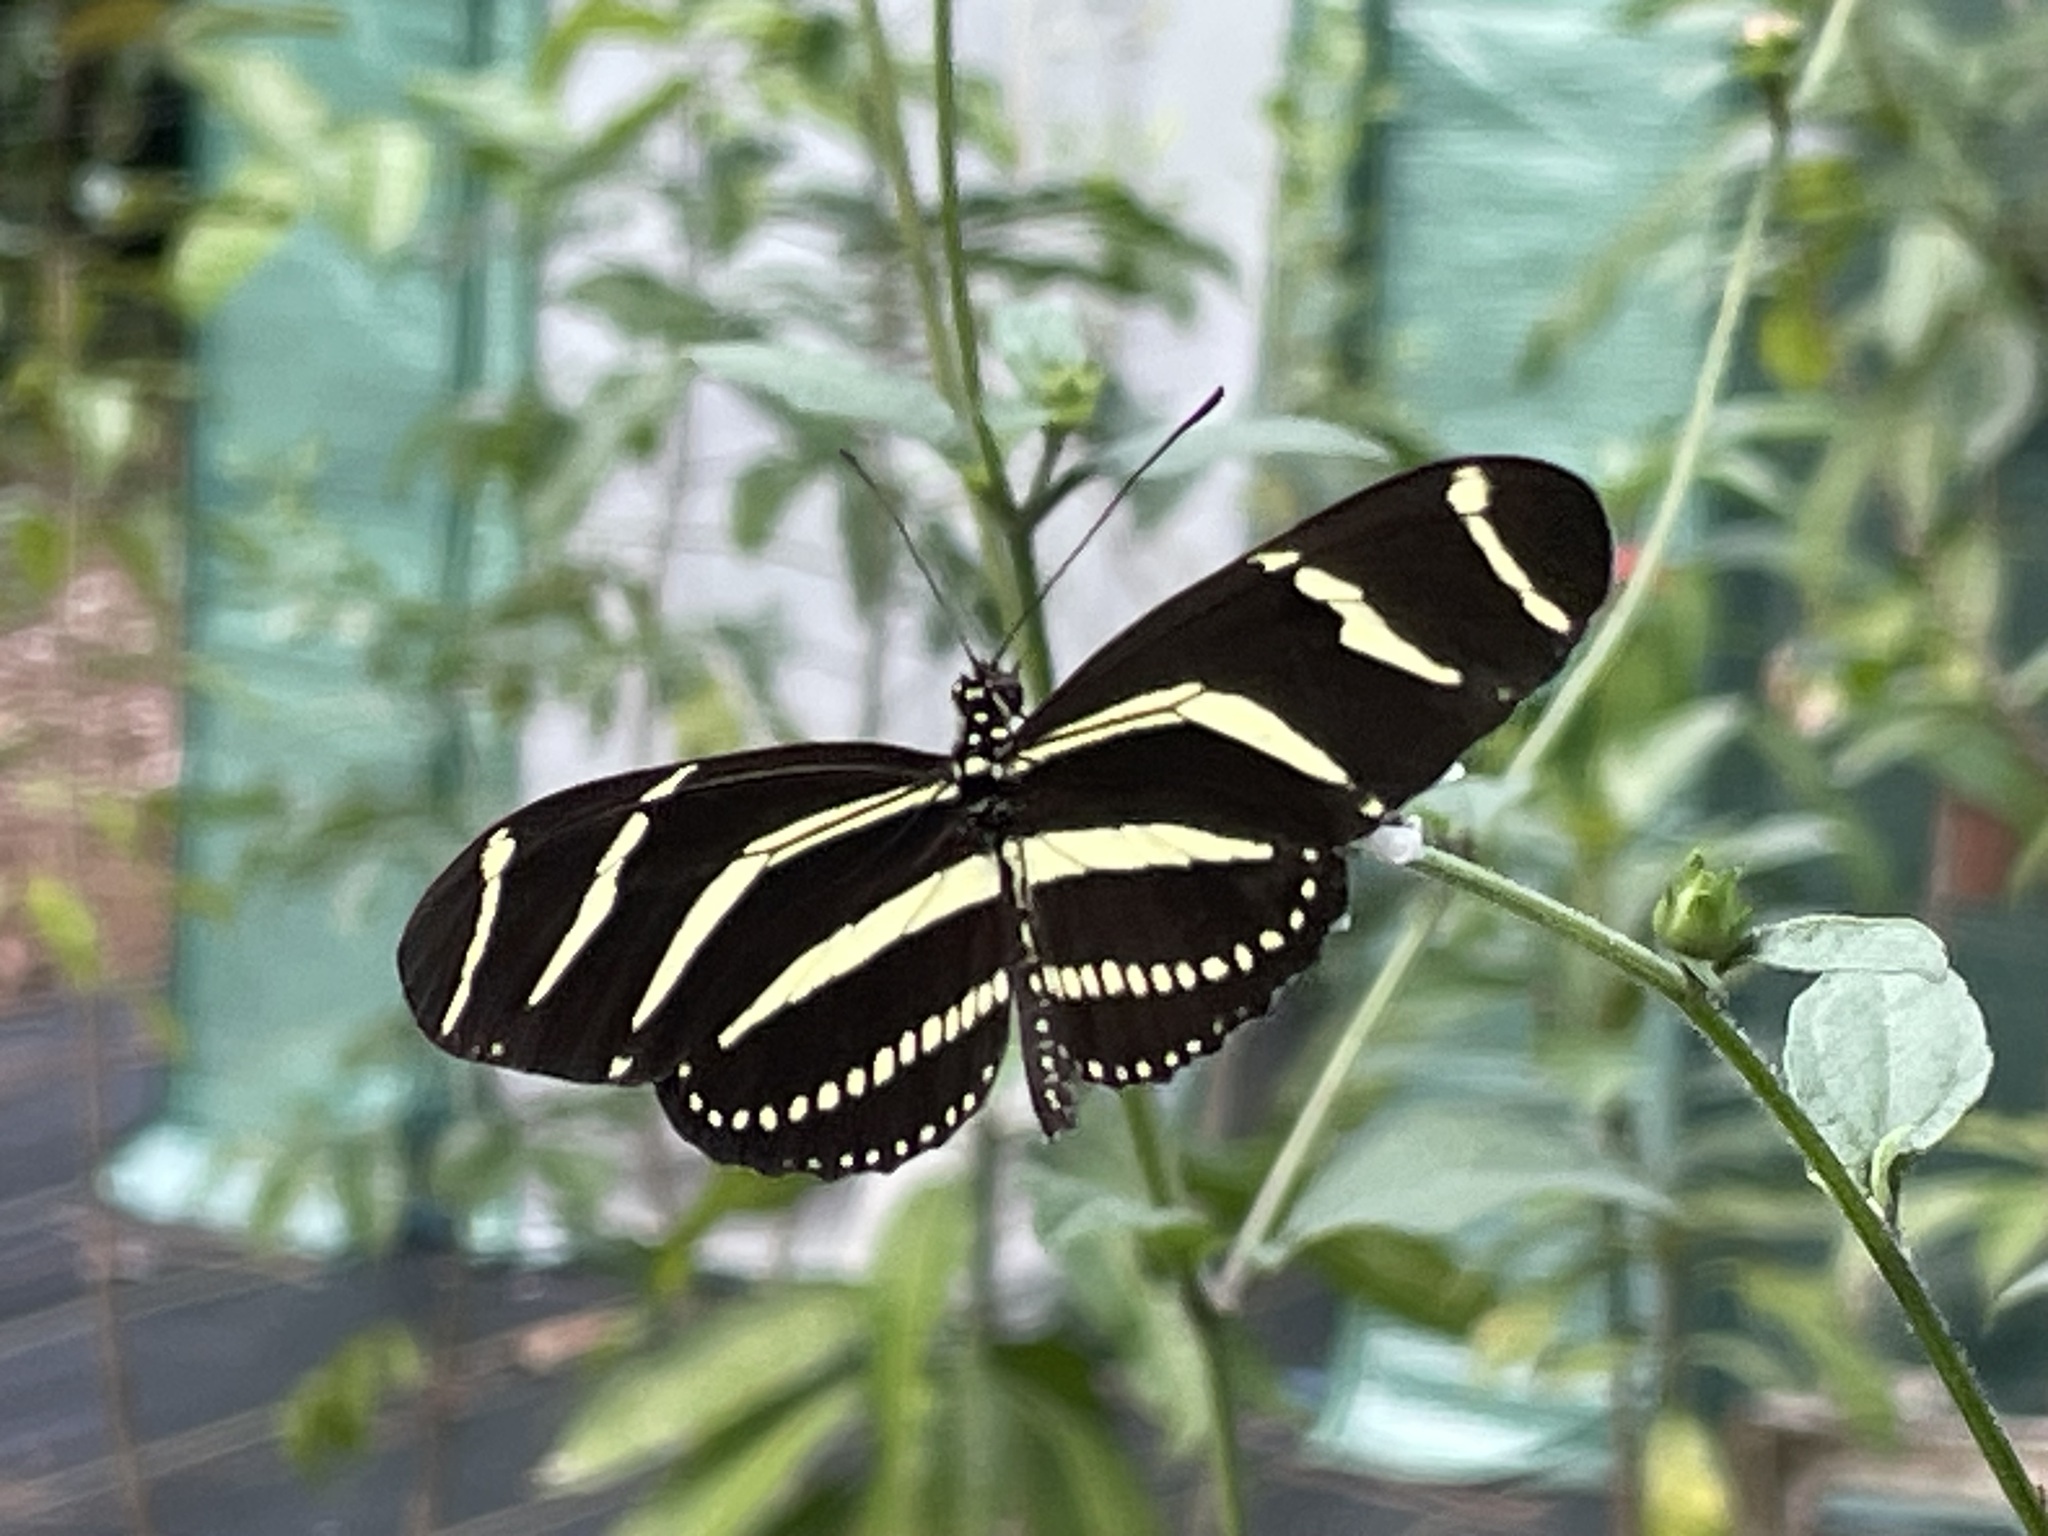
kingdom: Animalia
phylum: Arthropoda
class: Insecta
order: Lepidoptera
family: Nymphalidae
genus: Heliconius
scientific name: Heliconius charithonia
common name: Zebra long wing
